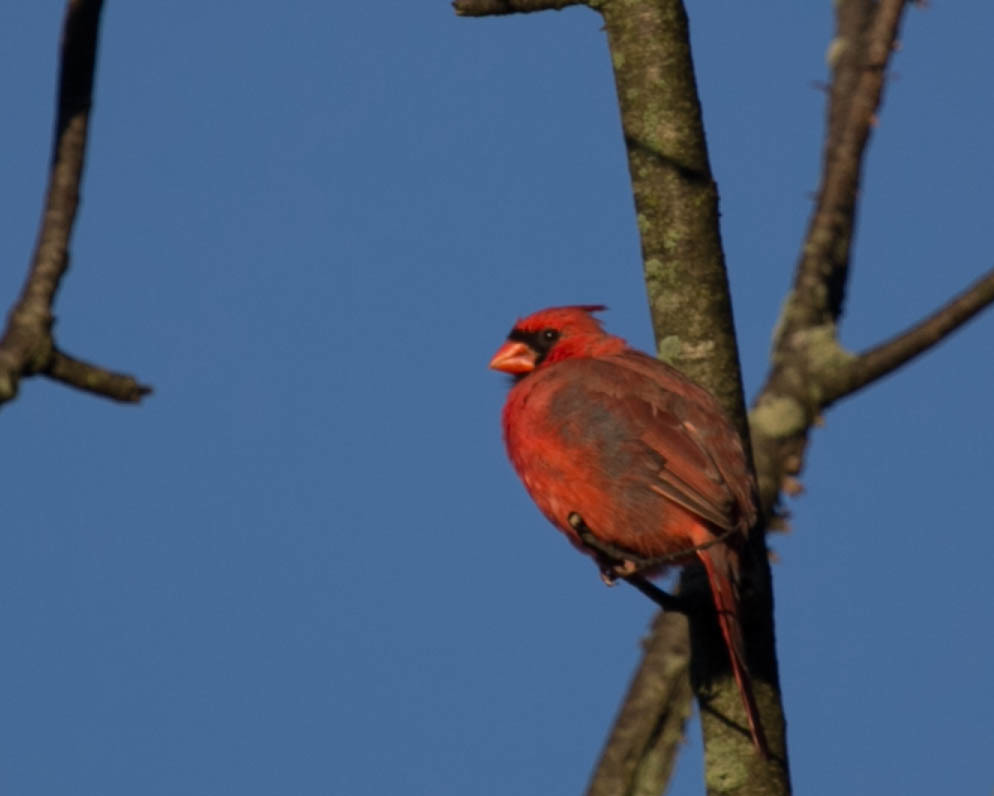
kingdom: Animalia
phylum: Chordata
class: Aves
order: Passeriformes
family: Cardinalidae
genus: Cardinalis
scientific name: Cardinalis cardinalis
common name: Northern cardinal
